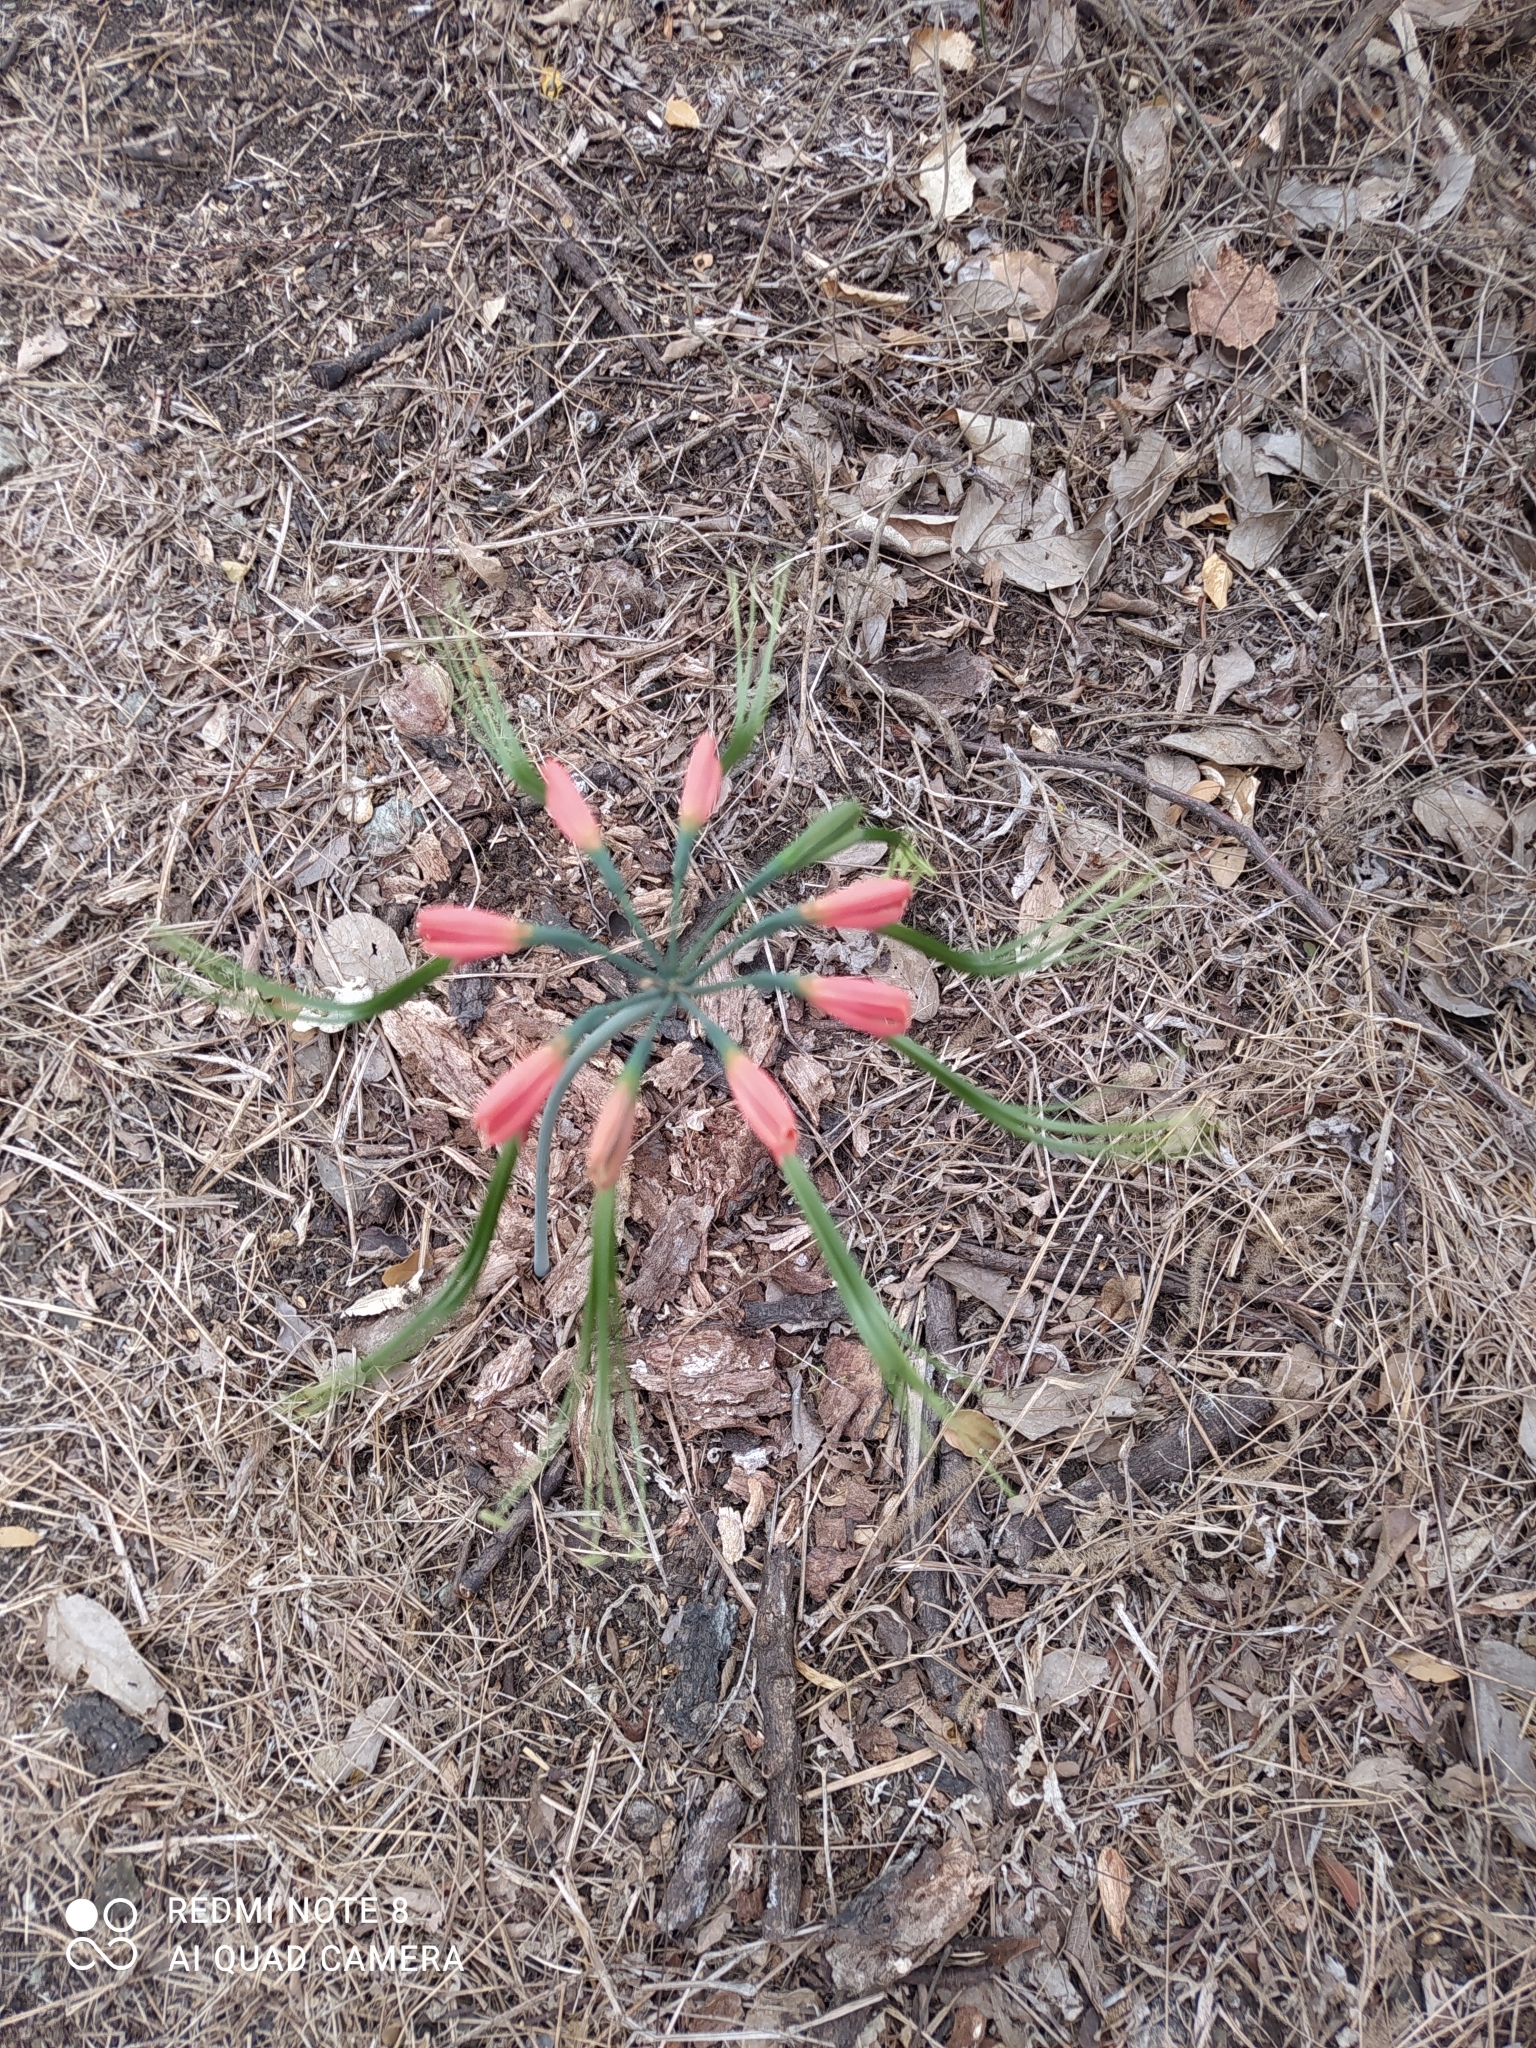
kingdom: Plantae
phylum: Tracheophyta
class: Liliopsida
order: Asparagales
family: Amaryllidaceae
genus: Eucrosia
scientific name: Eucrosia eucrosioides
